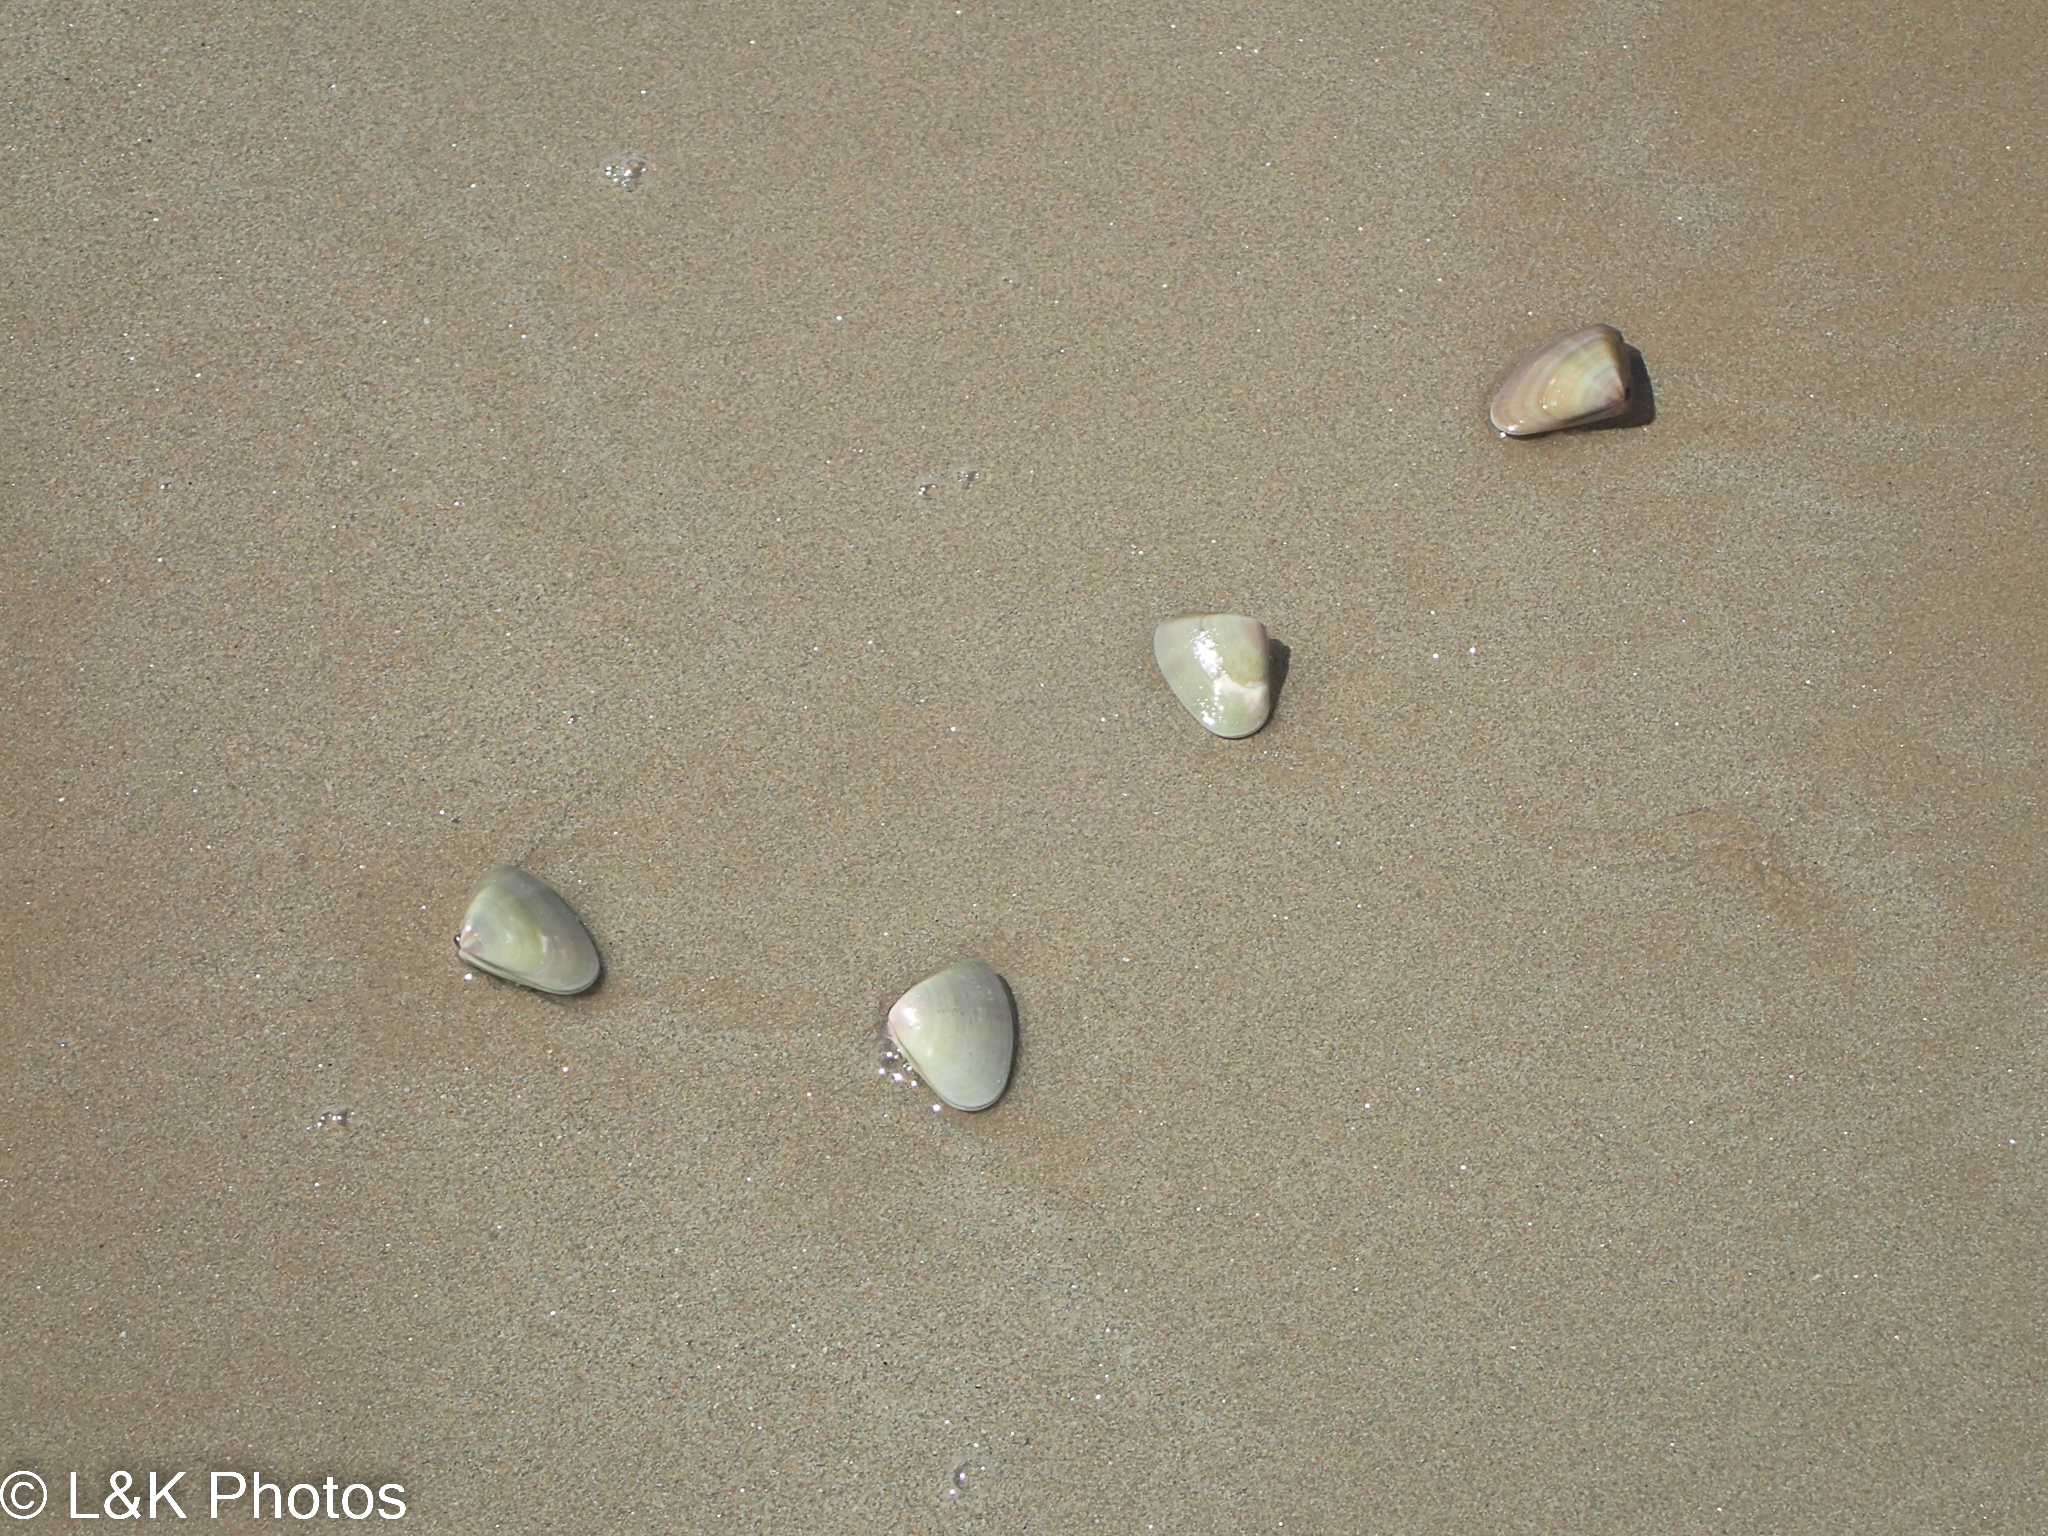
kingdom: Animalia
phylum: Mollusca
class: Bivalvia
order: Cardiida
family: Donacidae
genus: Latona
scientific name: Latona deltoides
